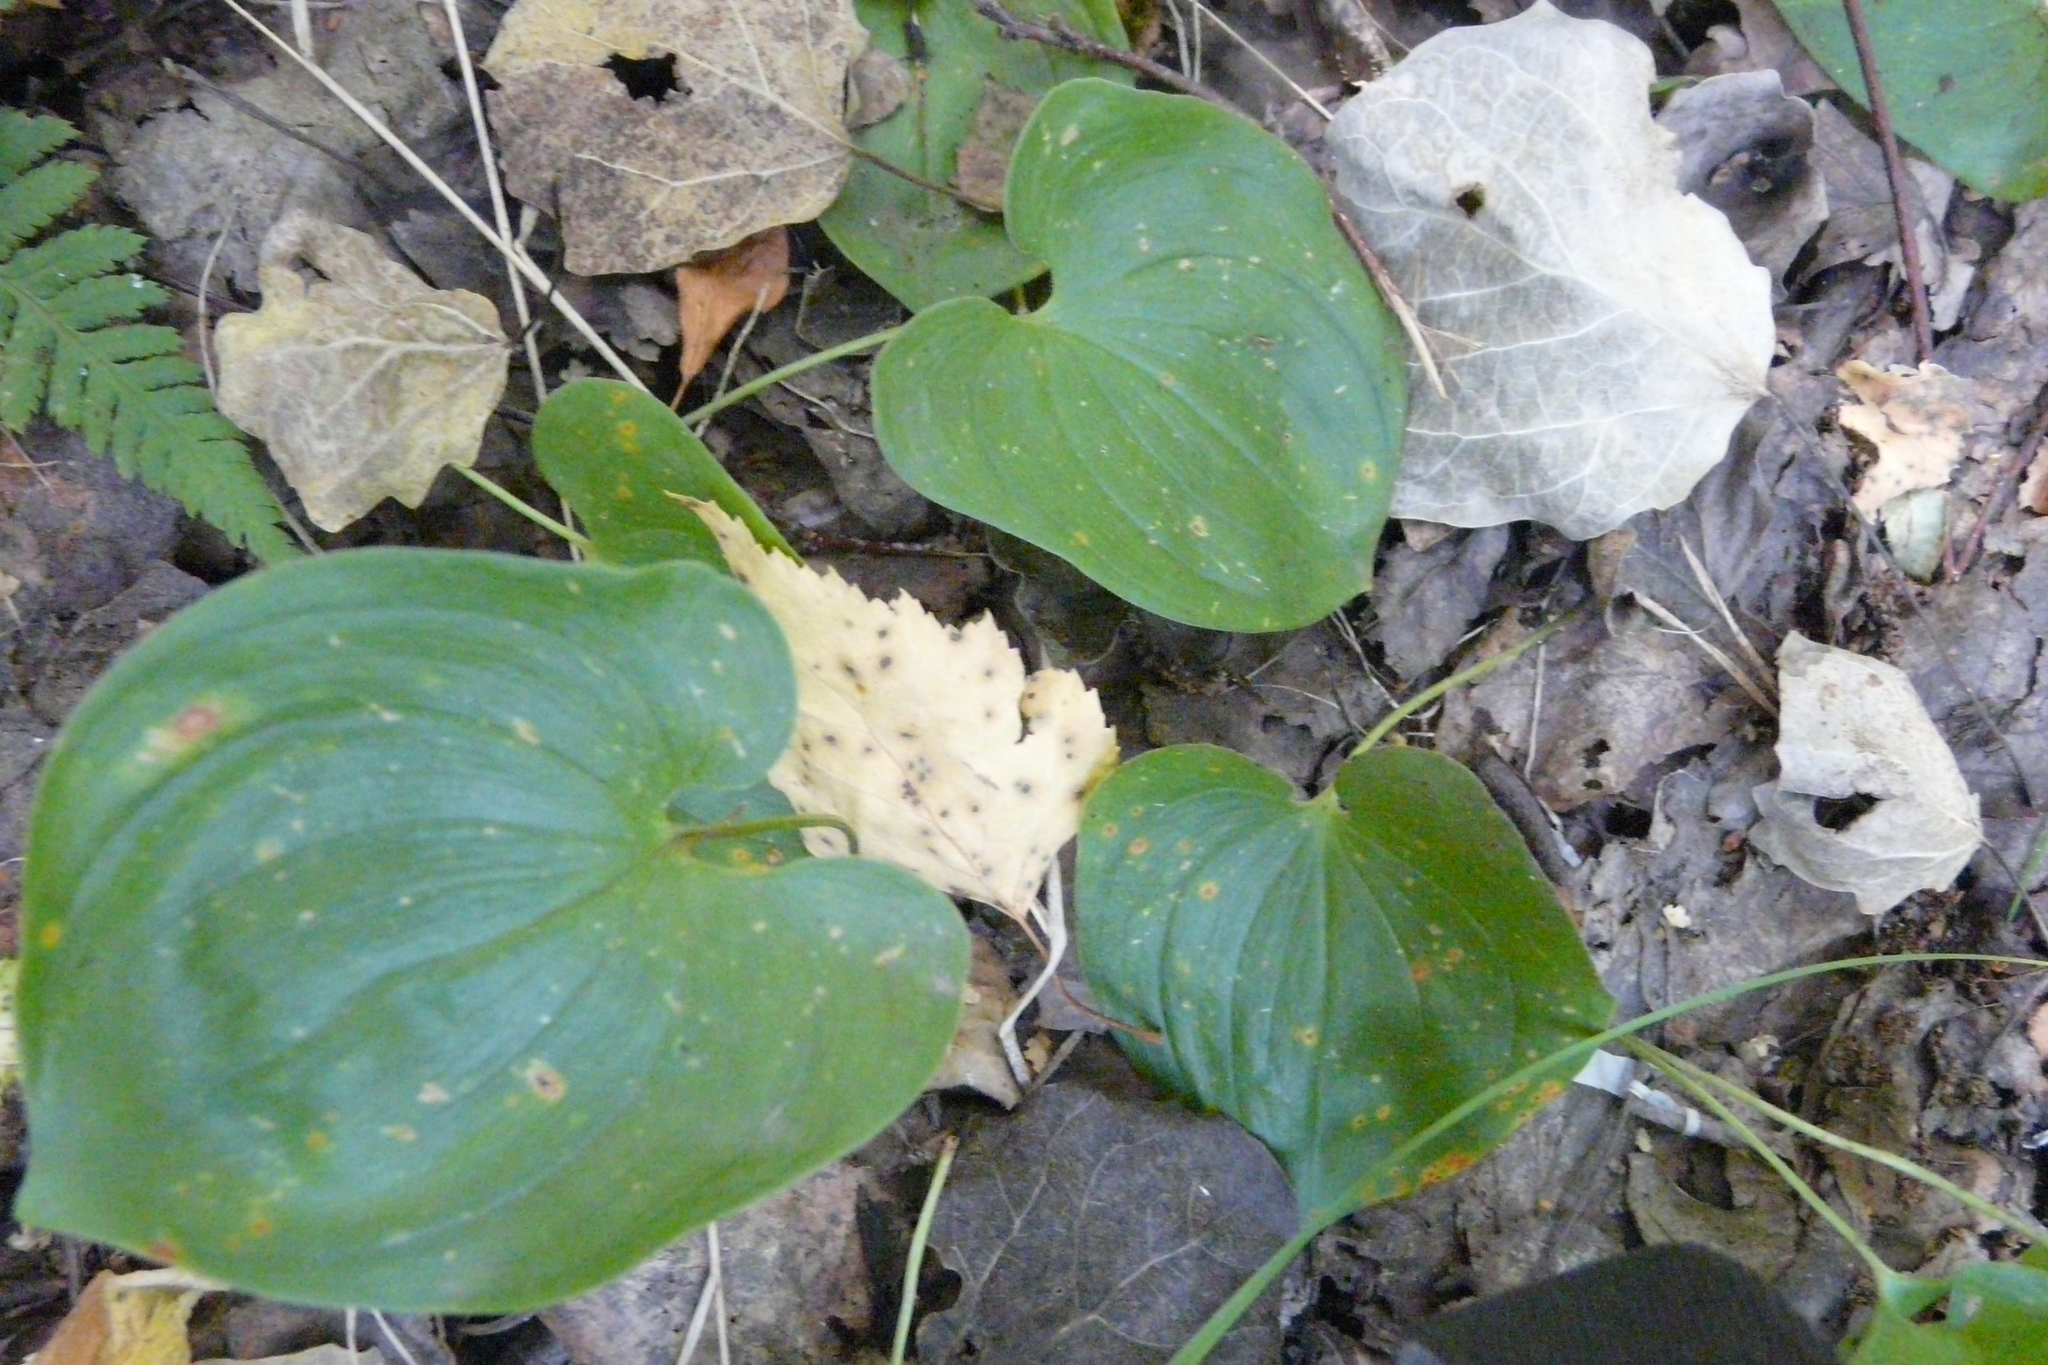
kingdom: Plantae
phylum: Tracheophyta
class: Liliopsida
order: Asparagales
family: Asparagaceae
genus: Maianthemum
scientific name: Maianthemum bifolium
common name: May lily
